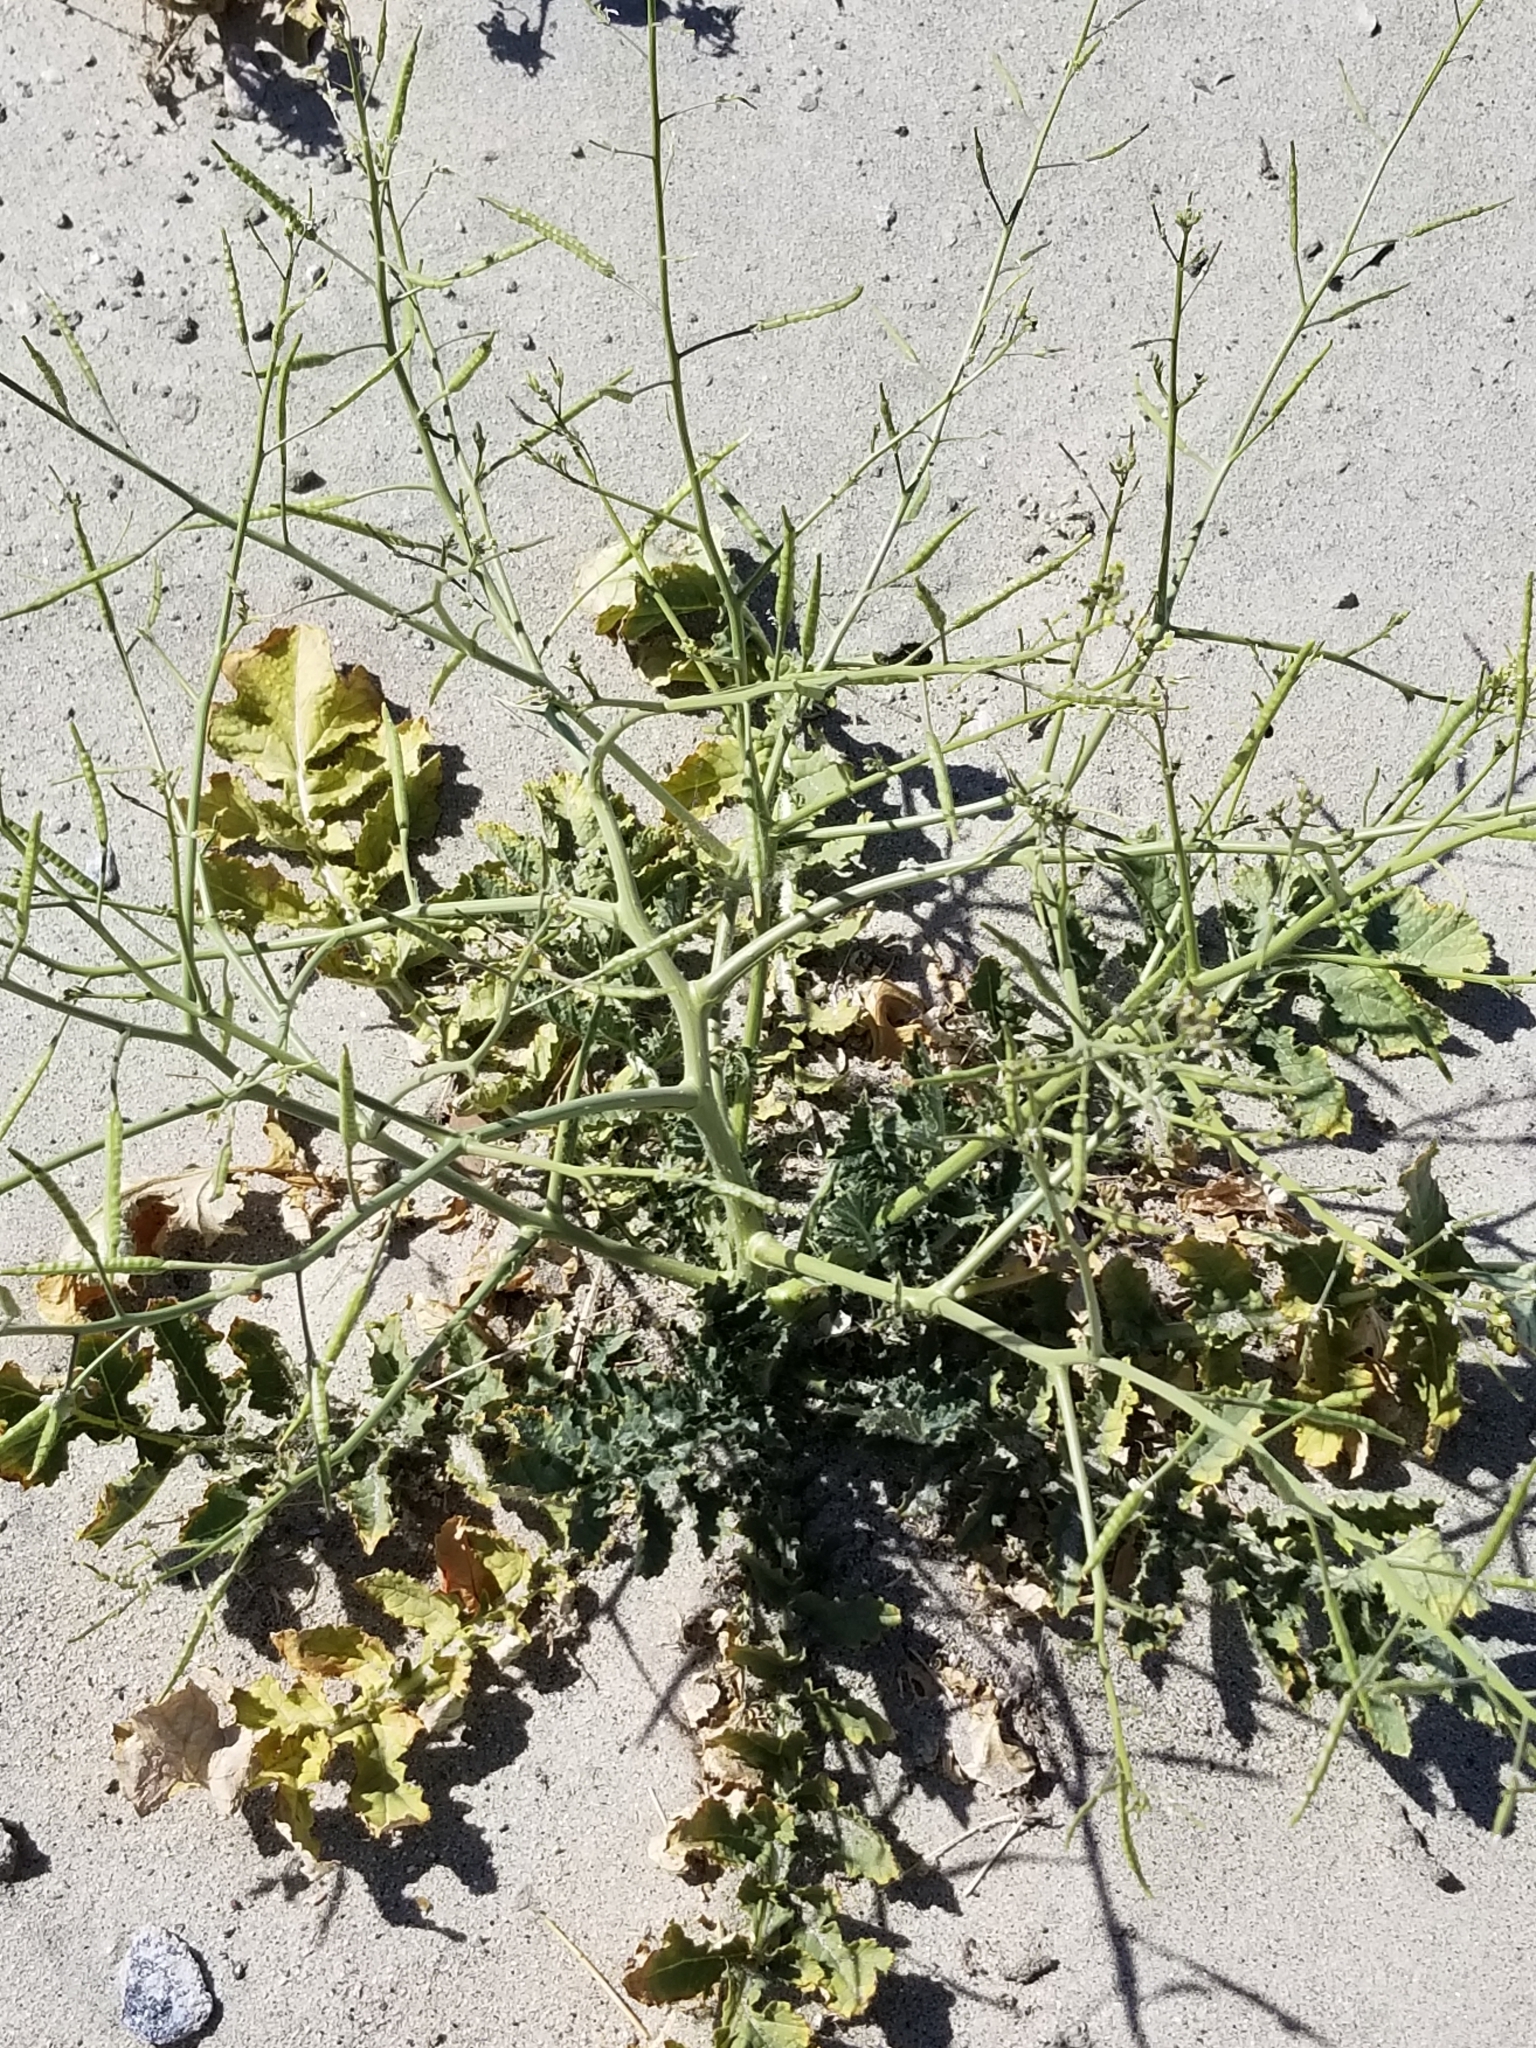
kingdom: Plantae
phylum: Tracheophyta
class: Magnoliopsida
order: Brassicales
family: Brassicaceae
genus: Brassica
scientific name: Brassica tournefortii
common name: Pale cabbage
